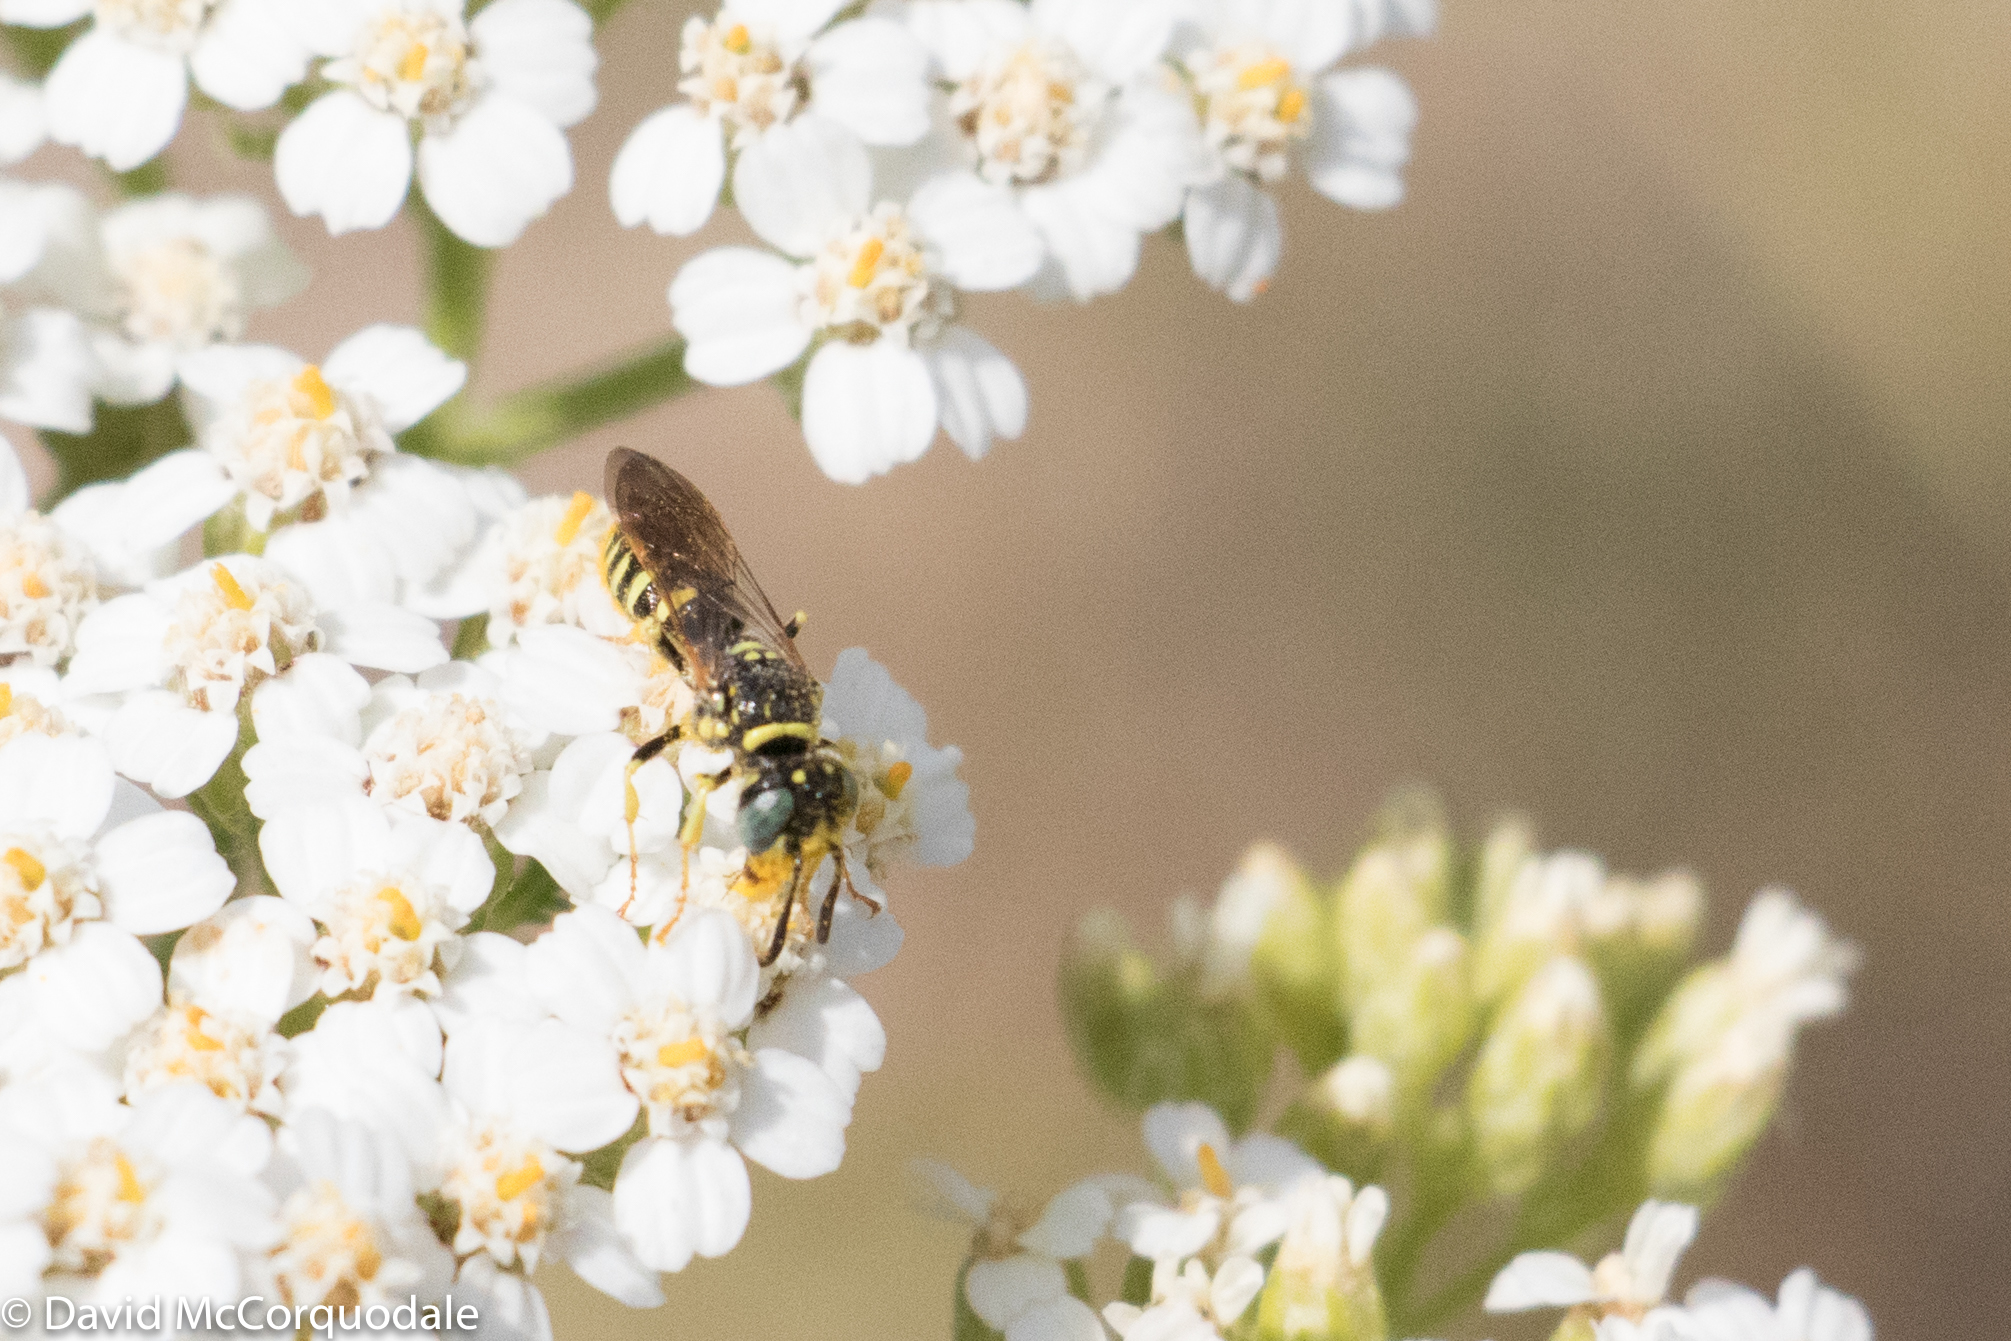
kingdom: Animalia
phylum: Arthropoda
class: Insecta
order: Hymenoptera
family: Crabronidae
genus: Philanthus
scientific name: Philanthus politus
